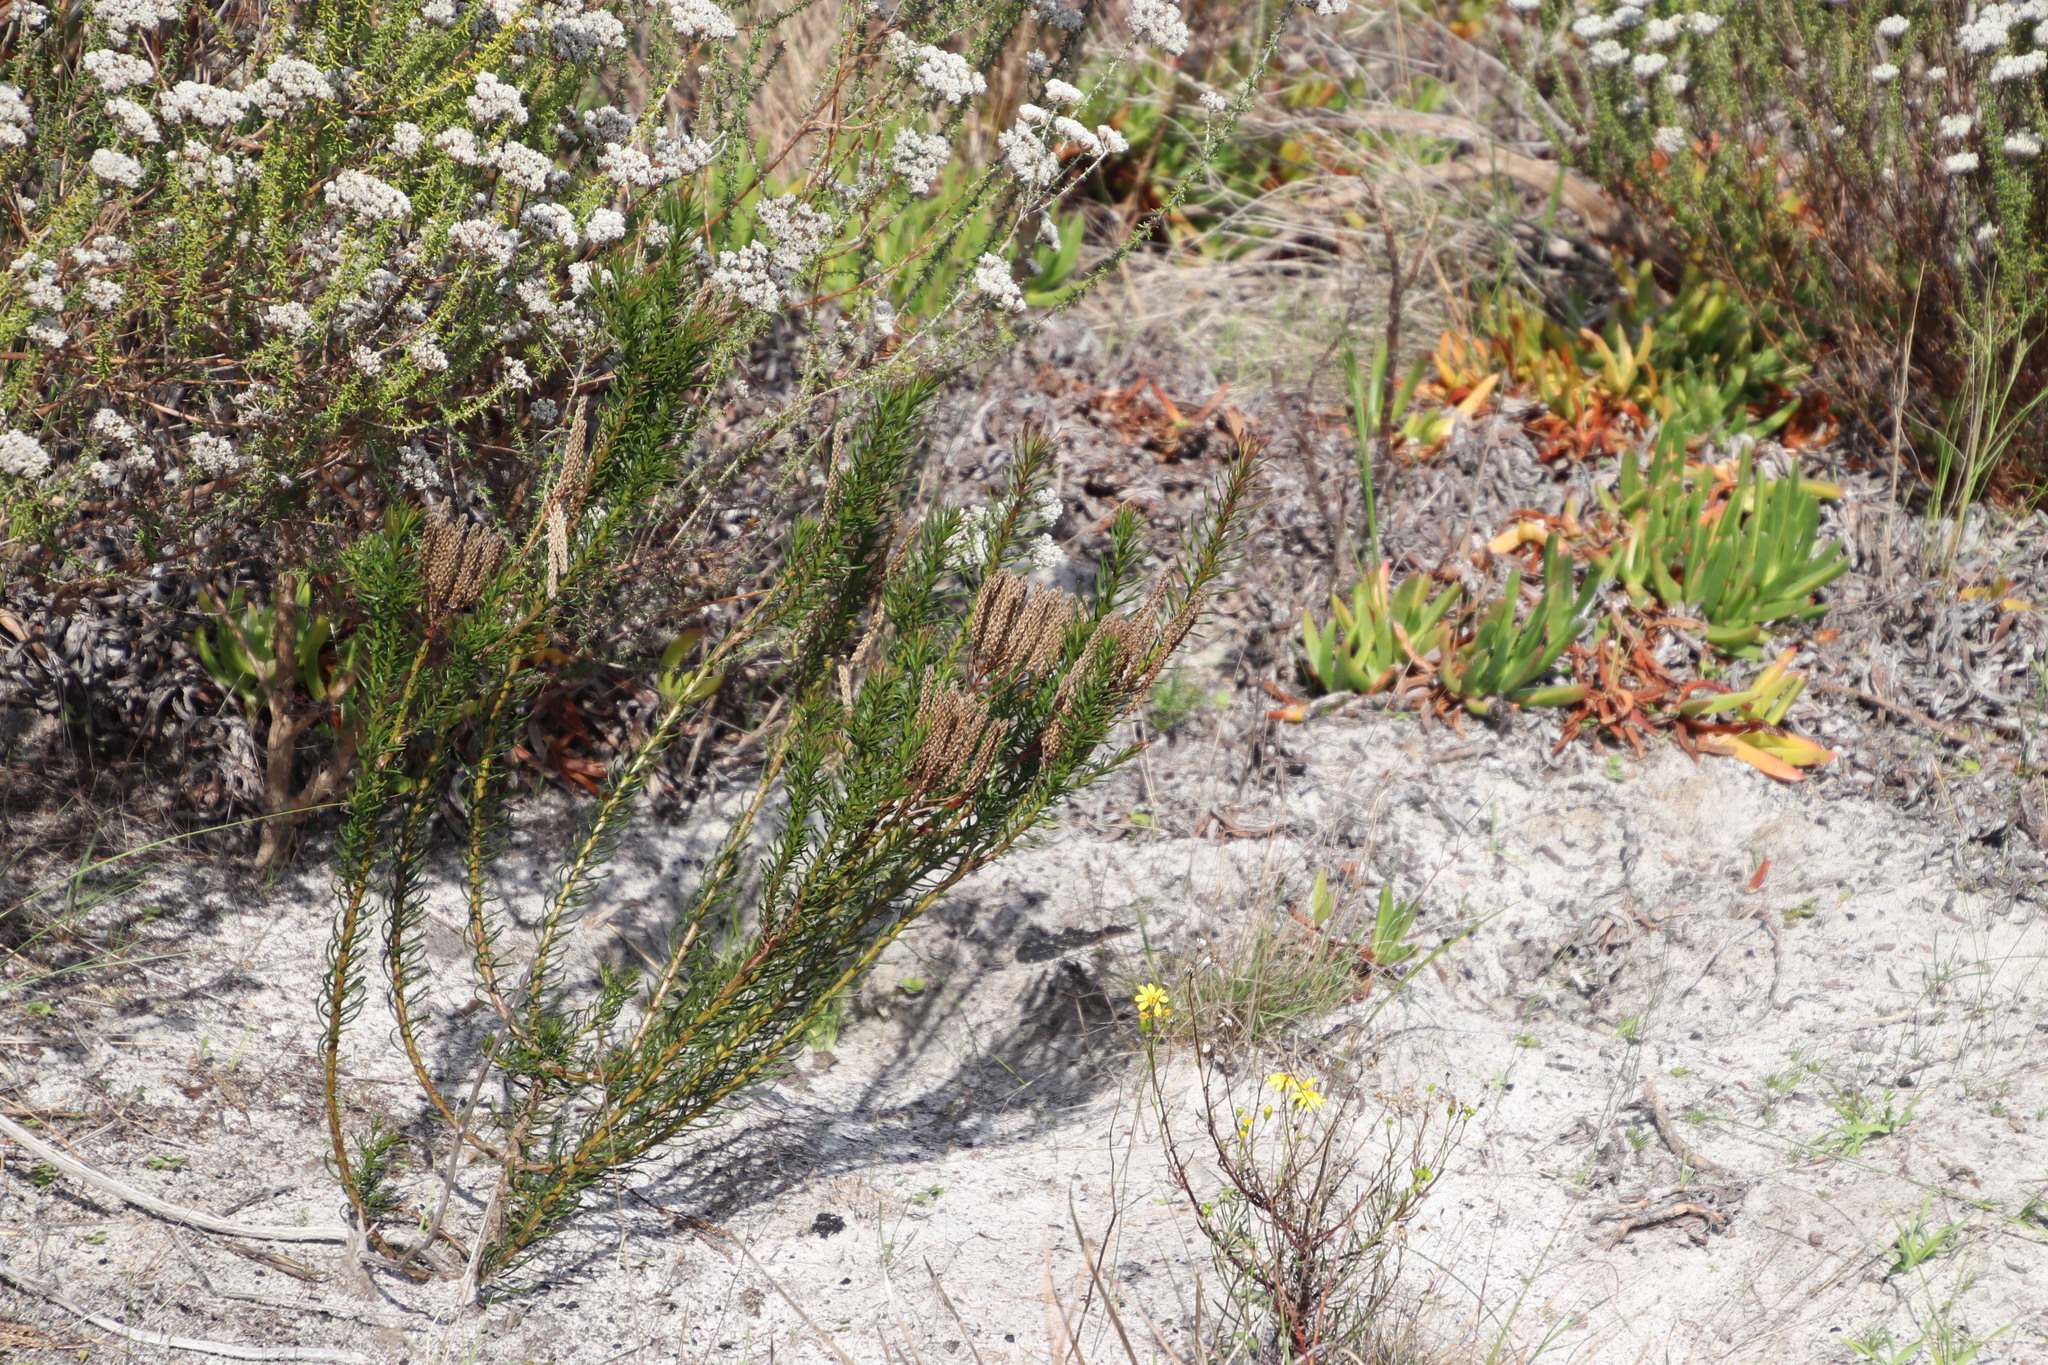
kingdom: Plantae
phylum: Tracheophyta
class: Magnoliopsida
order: Lamiales
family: Scrophulariaceae
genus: Pseudoselago
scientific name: Pseudoselago spuria
